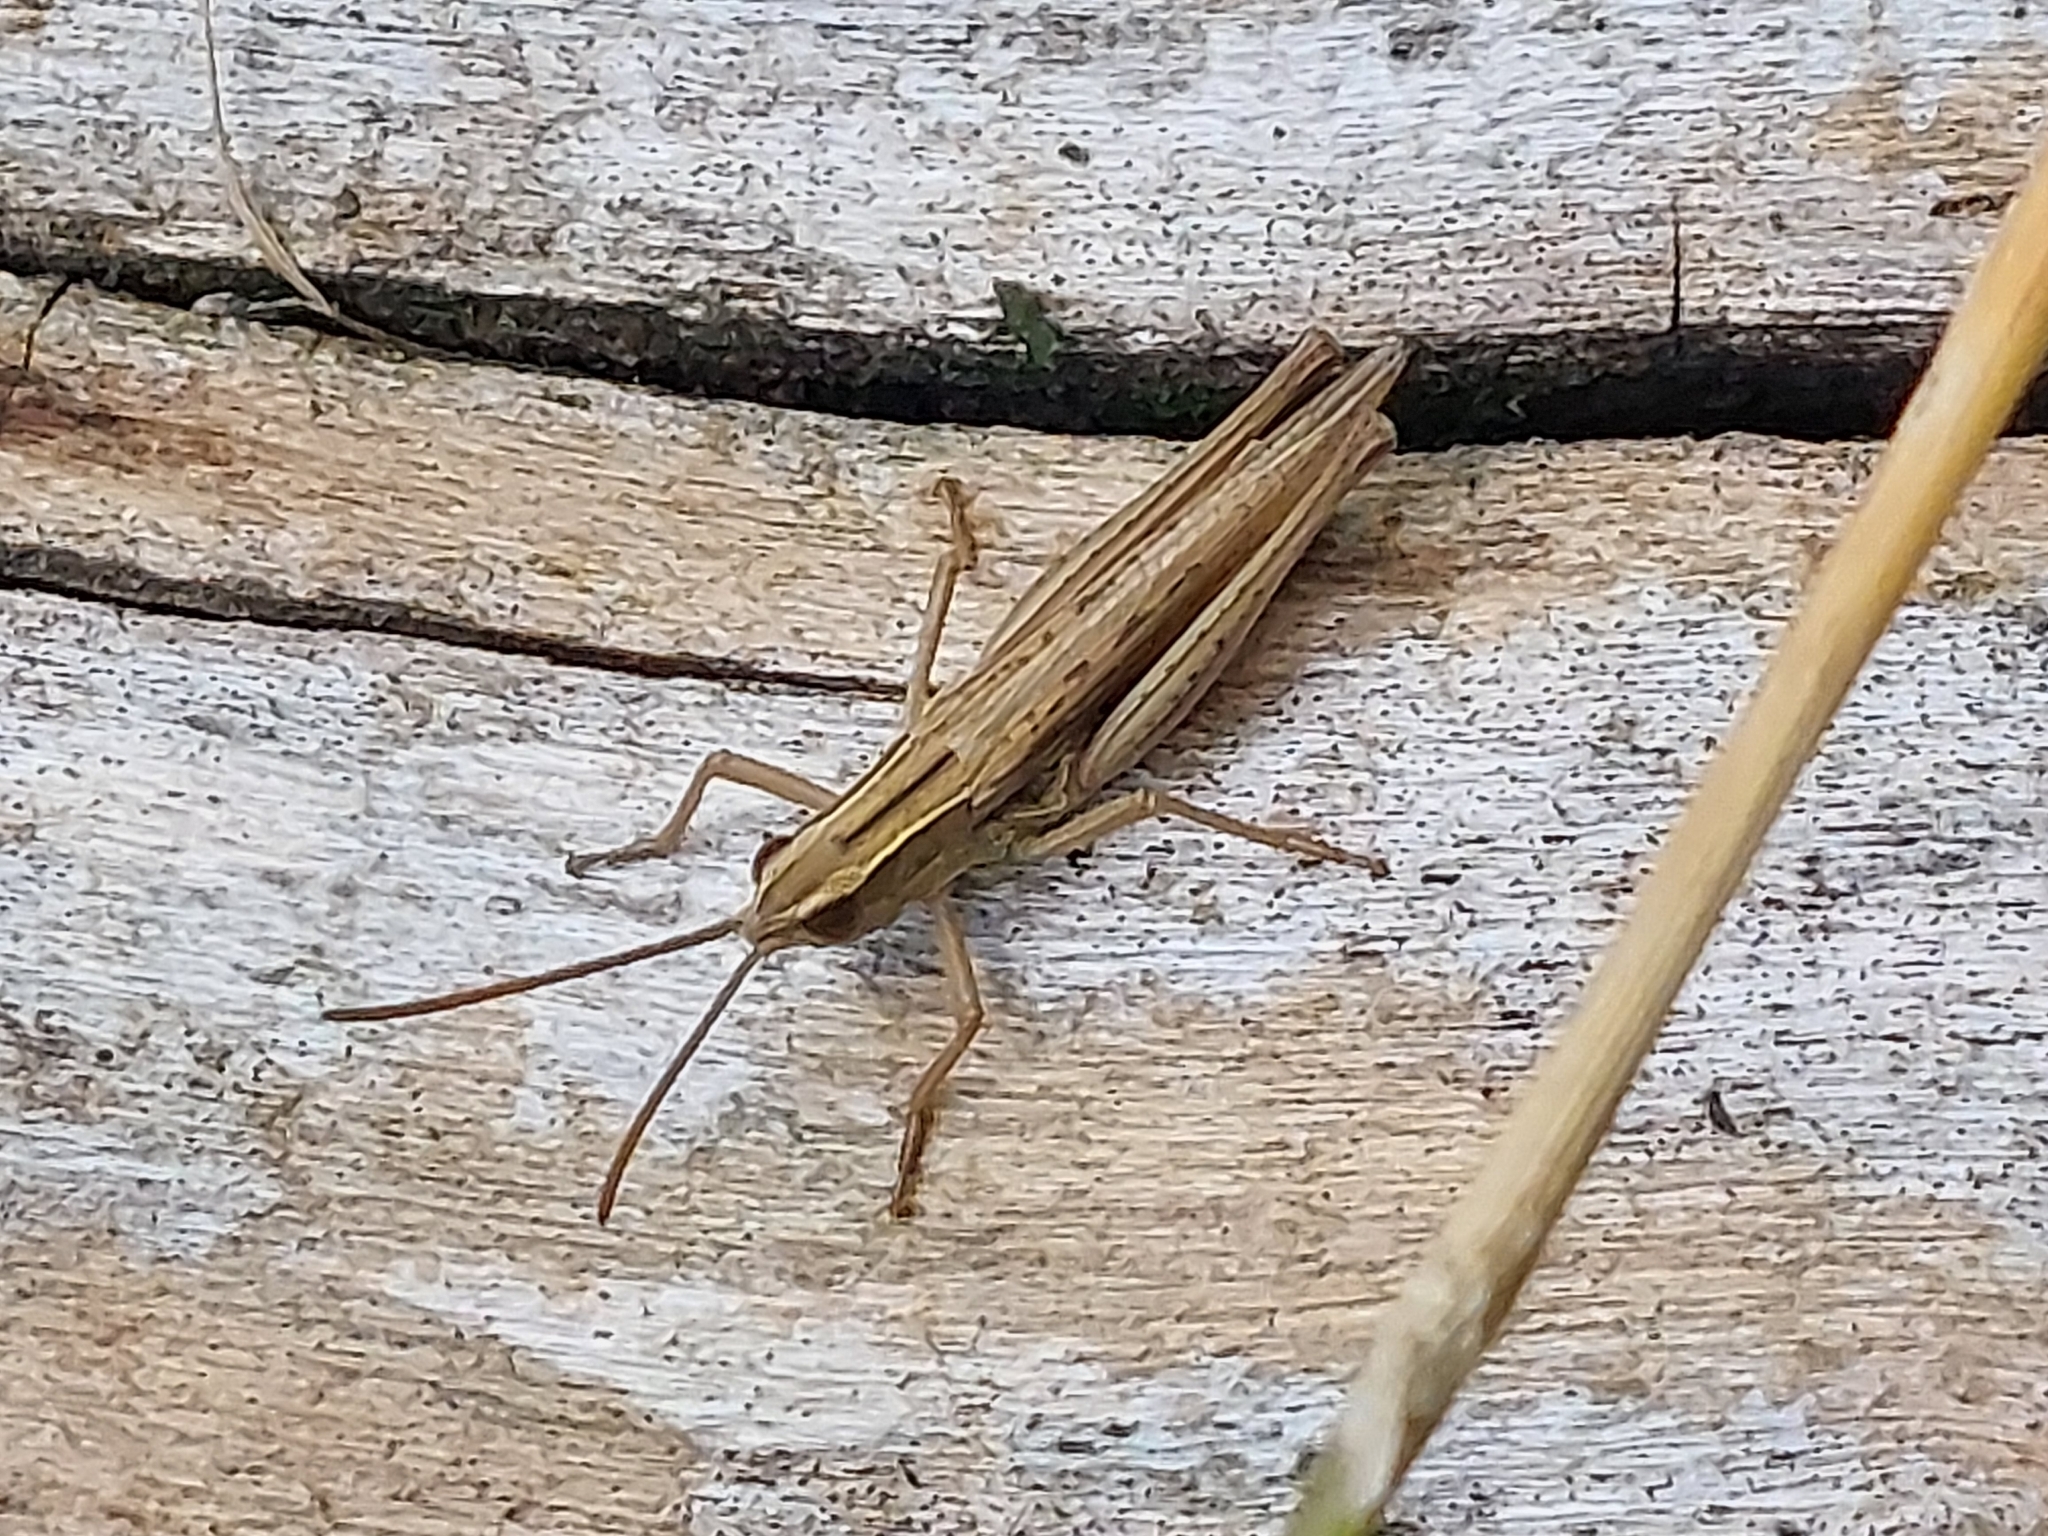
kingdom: Animalia
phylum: Arthropoda
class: Insecta
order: Orthoptera
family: Acrididae
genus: Chorthippus
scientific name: Chorthippus albomarginatus
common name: Lesser marsh grasshopper
